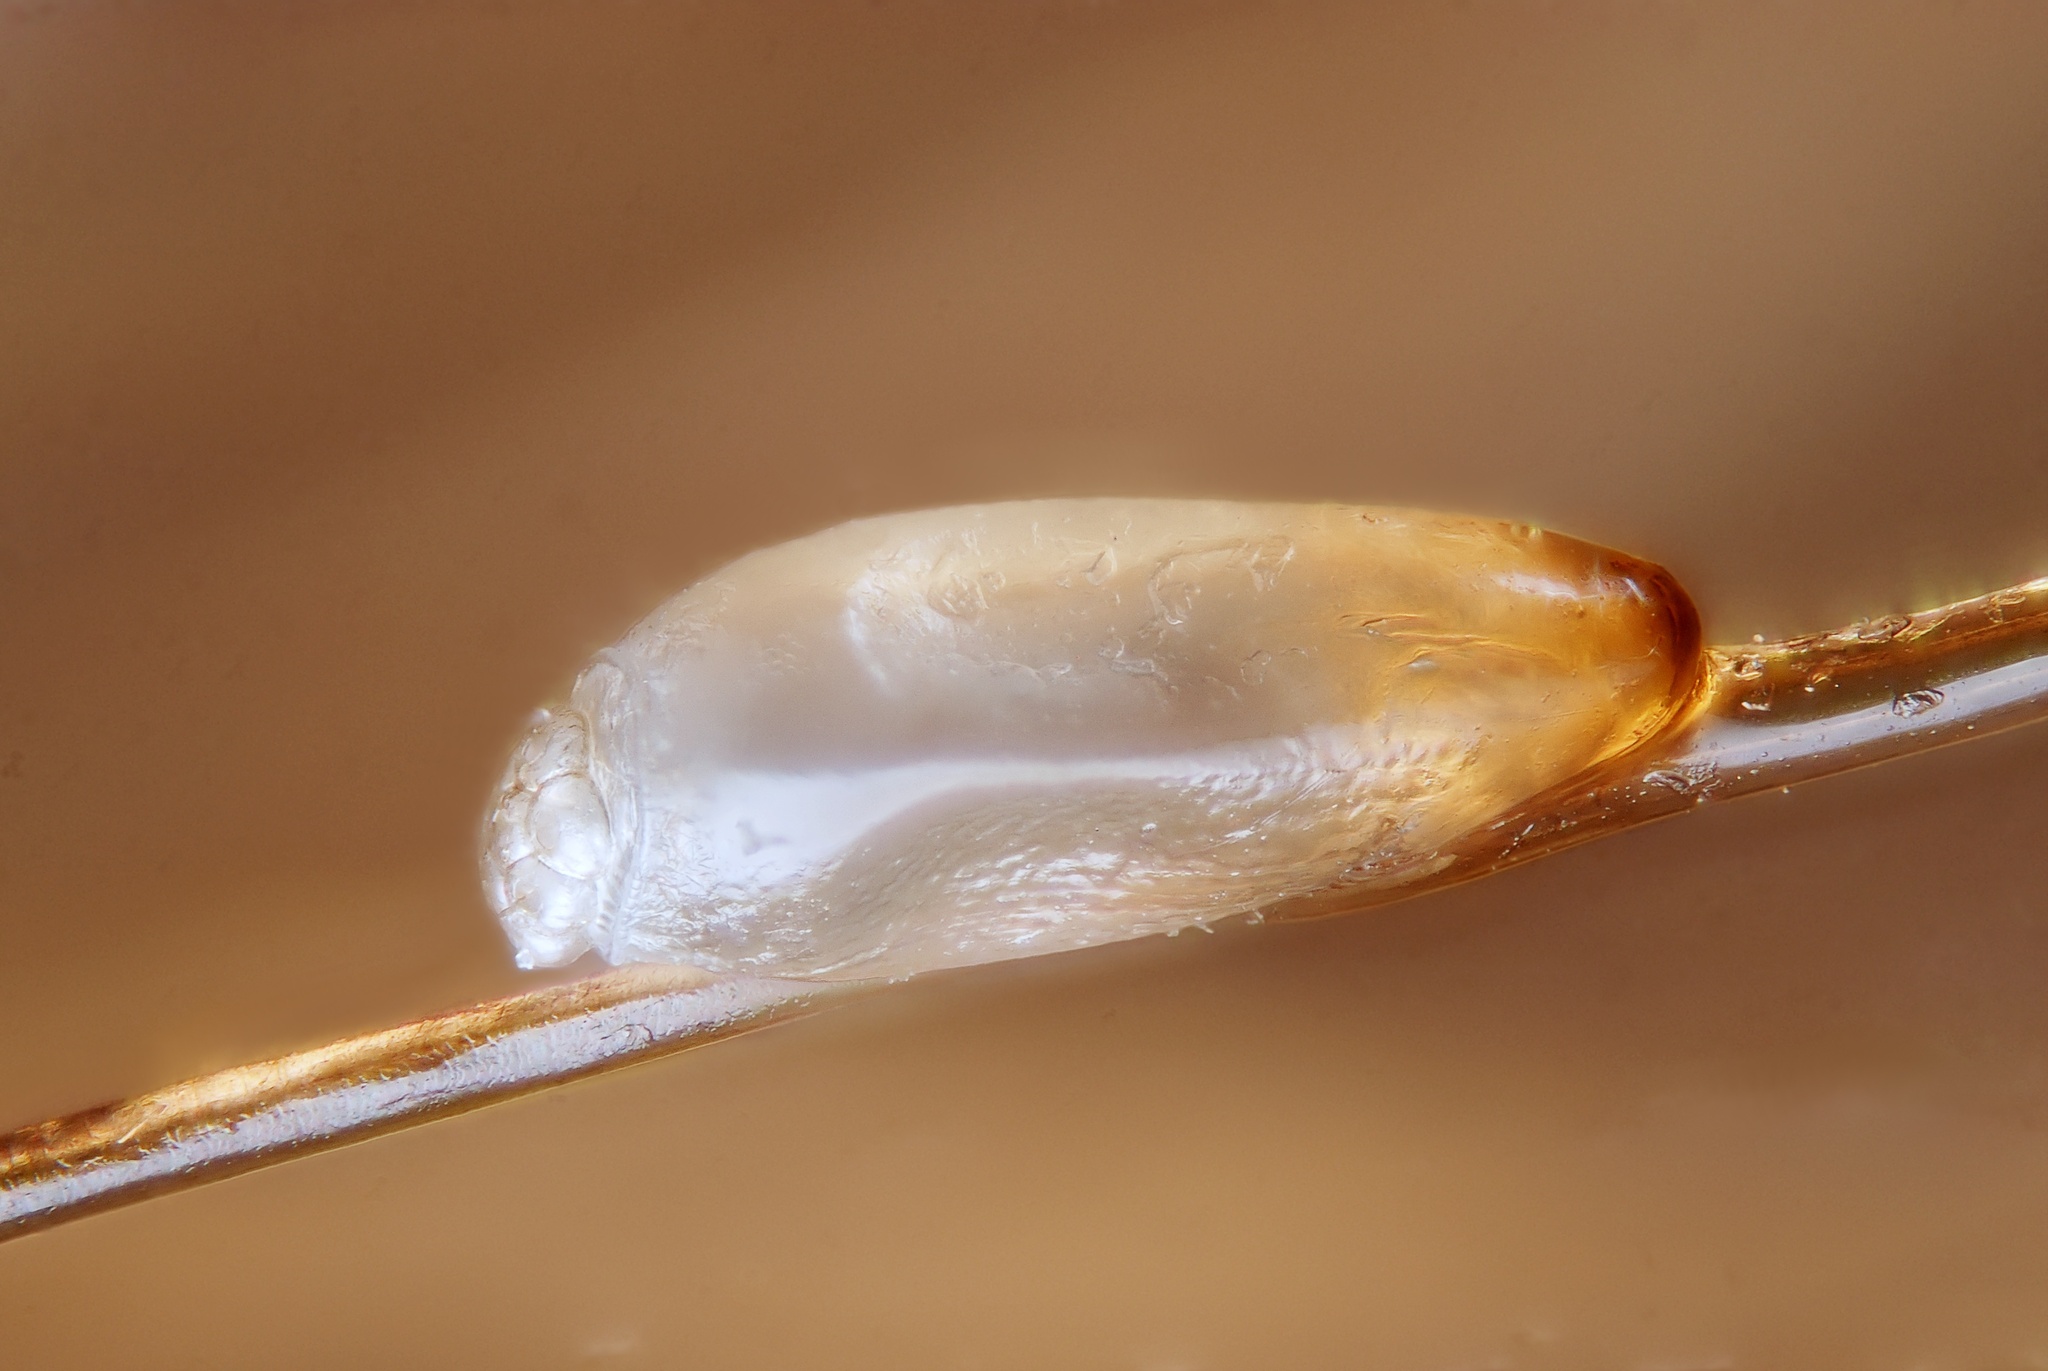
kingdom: Animalia
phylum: Arthropoda
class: Insecta
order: Psocodea
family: Pediculidae
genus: Pediculus
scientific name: Pediculus humanus
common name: Body louse
